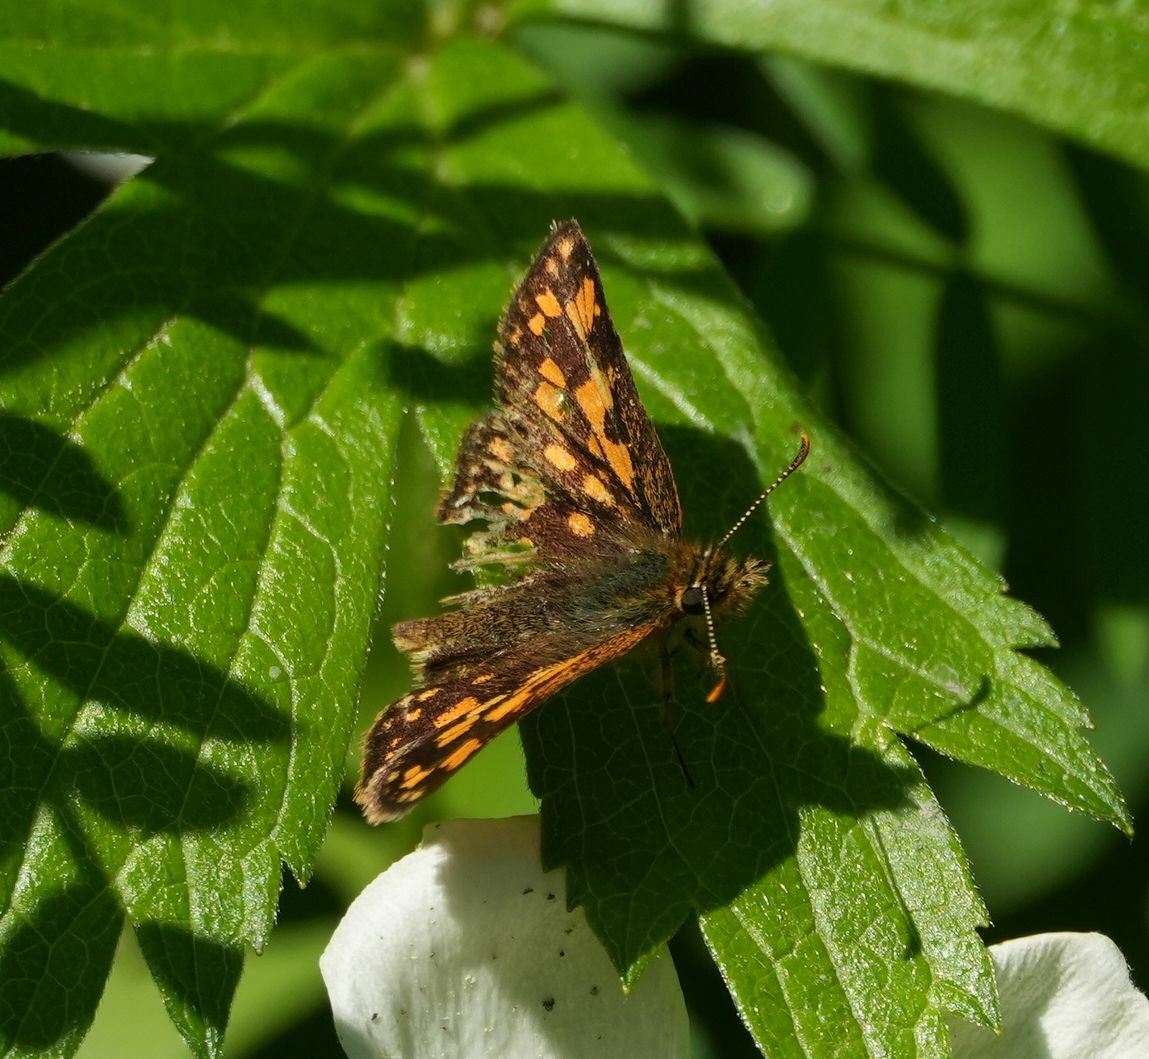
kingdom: Animalia
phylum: Arthropoda
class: Insecta
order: Lepidoptera
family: Hesperiidae
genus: Carterocephalus
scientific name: Carterocephalus mandan
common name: Arctic skipperling
